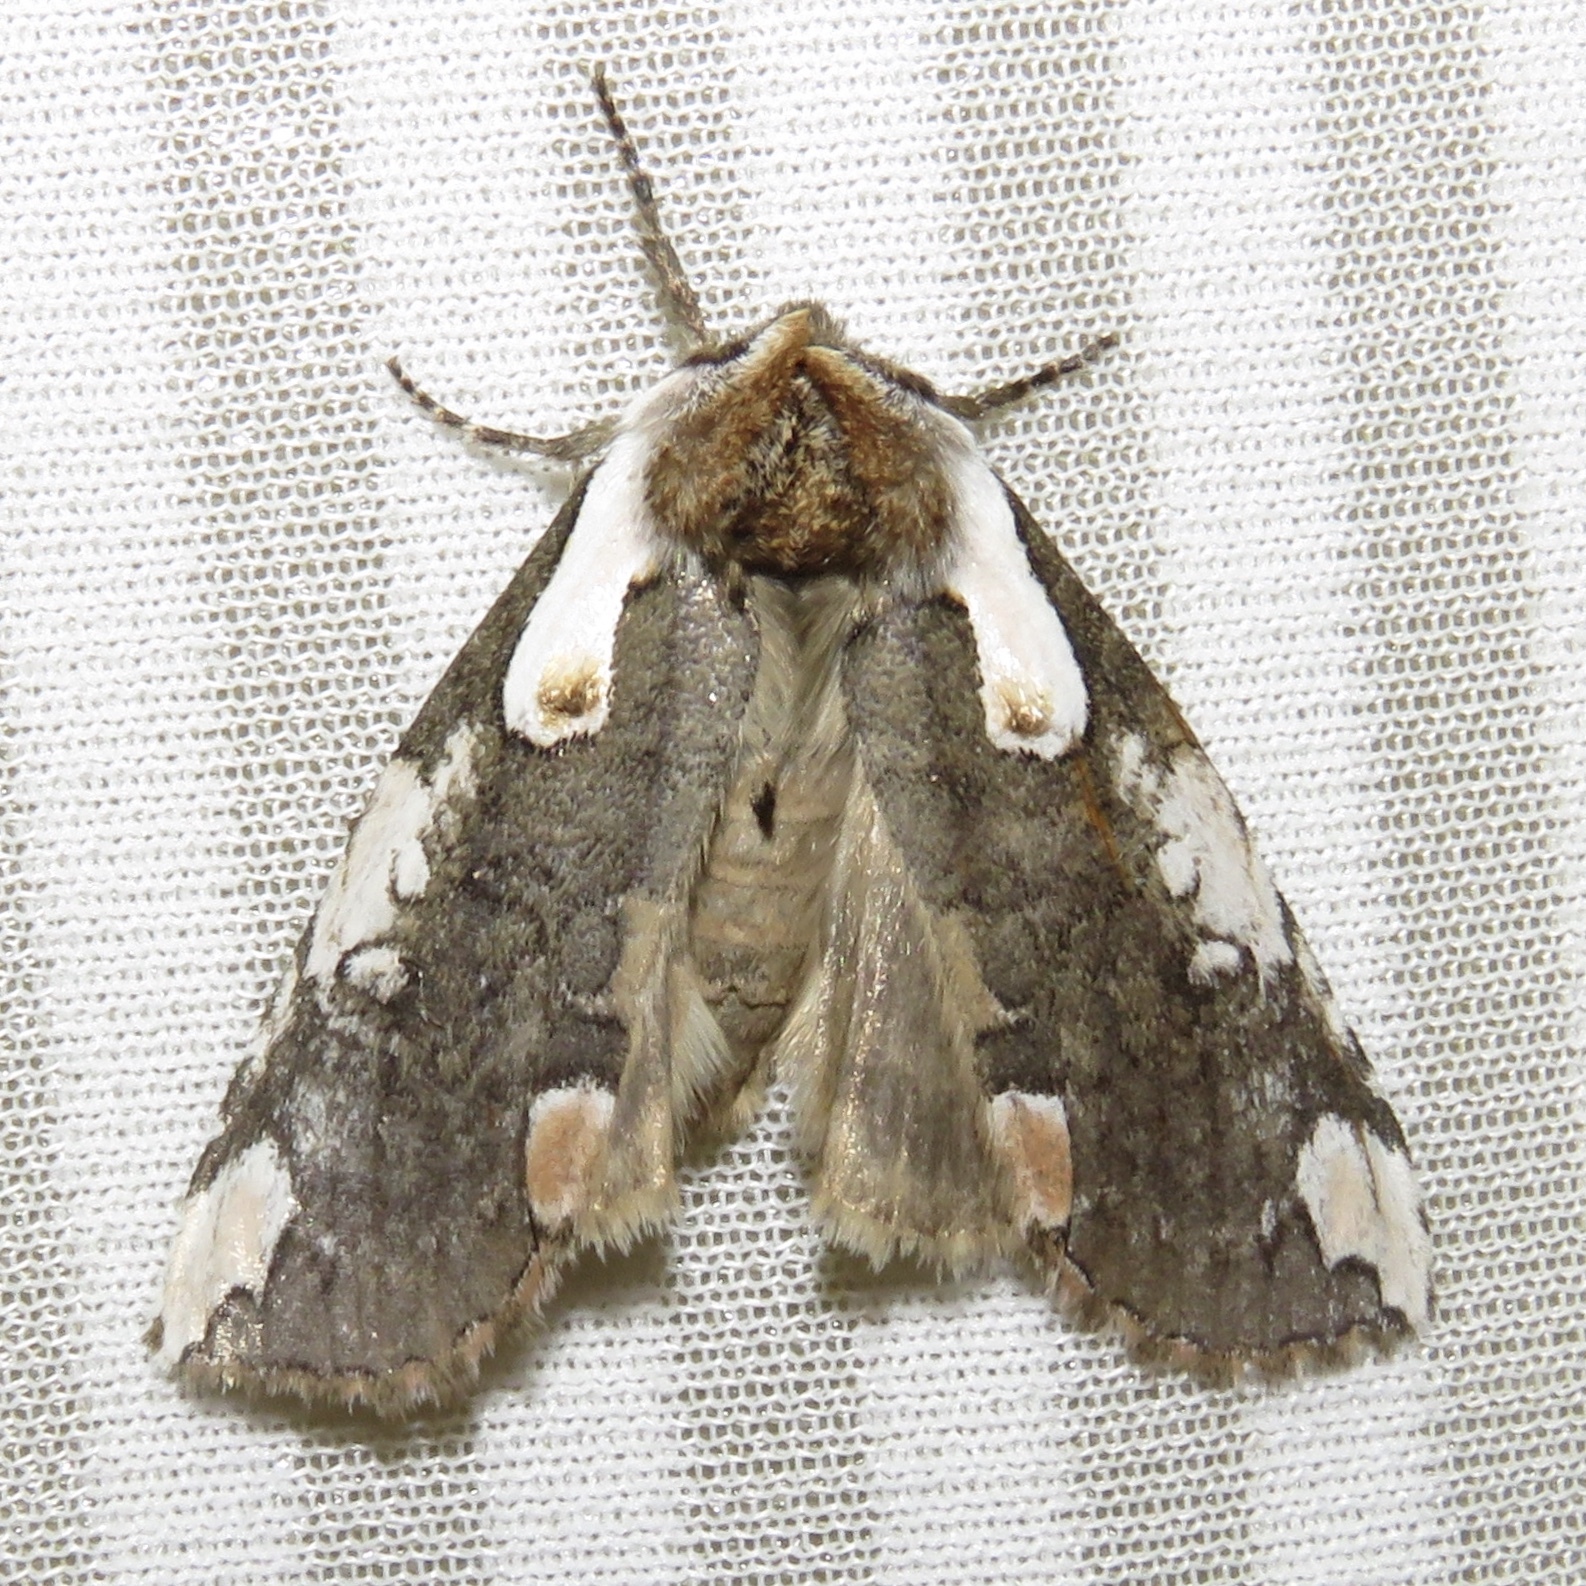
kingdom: Animalia
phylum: Arthropoda
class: Insecta
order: Lepidoptera
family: Drepanidae
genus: Euthyatira
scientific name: Euthyatira pudens
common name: Dogwood thyatirid moth
